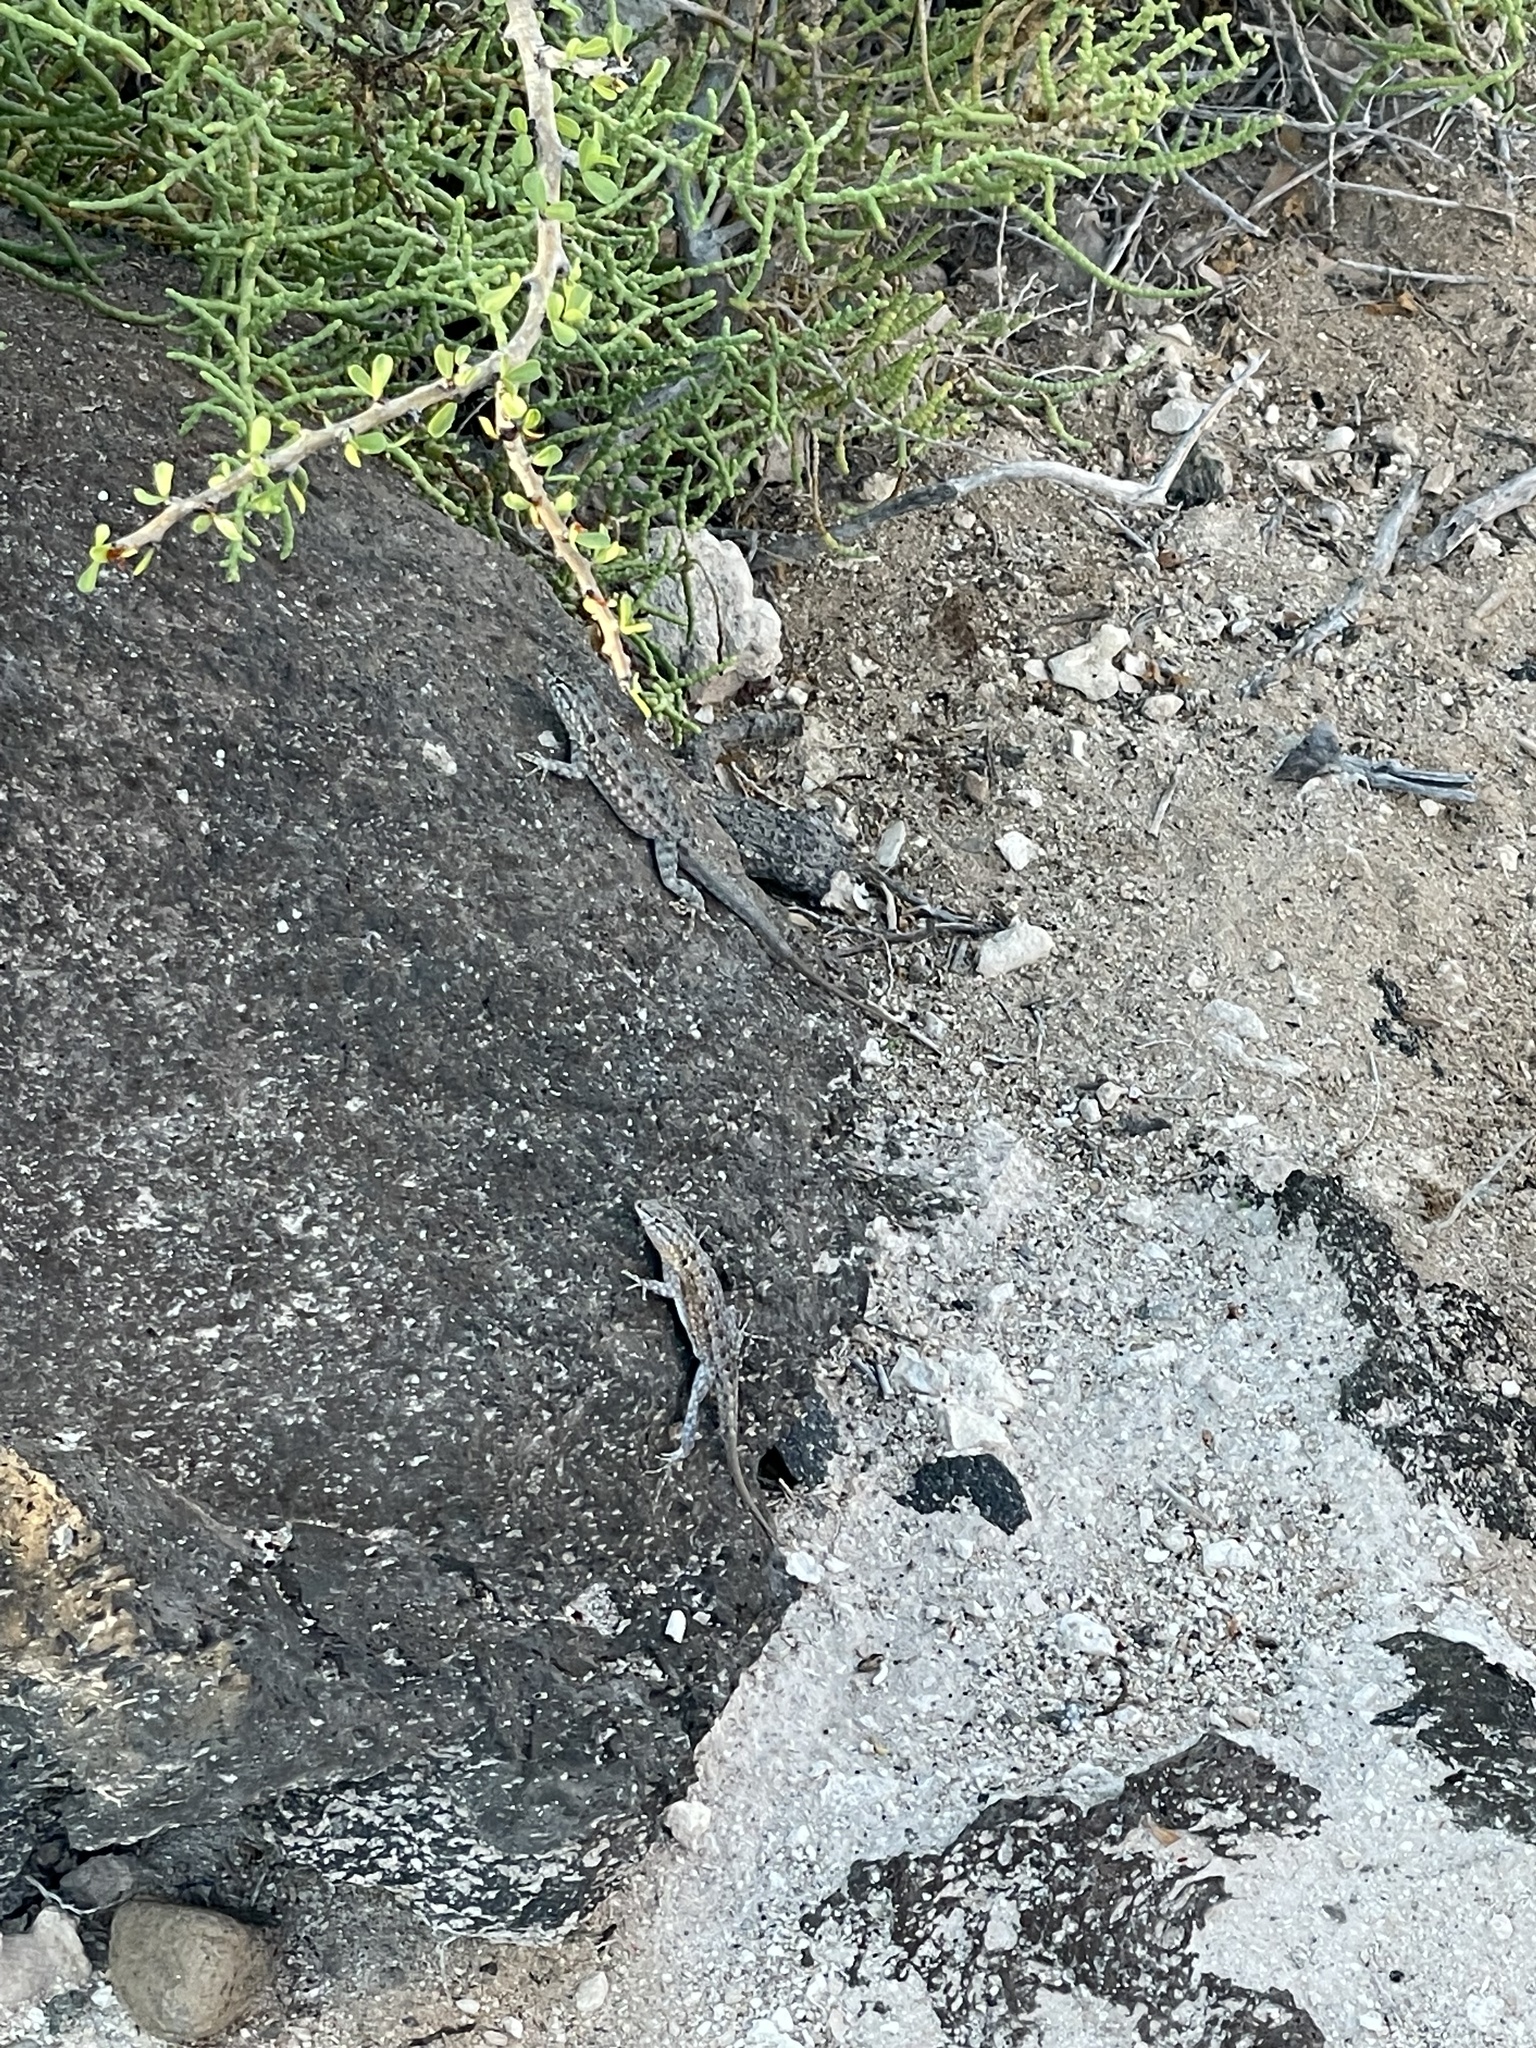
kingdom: Animalia
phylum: Chordata
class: Squamata
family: Phrynosomatidae
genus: Uta
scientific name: Uta stansburiana
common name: Side-blotched lizard
